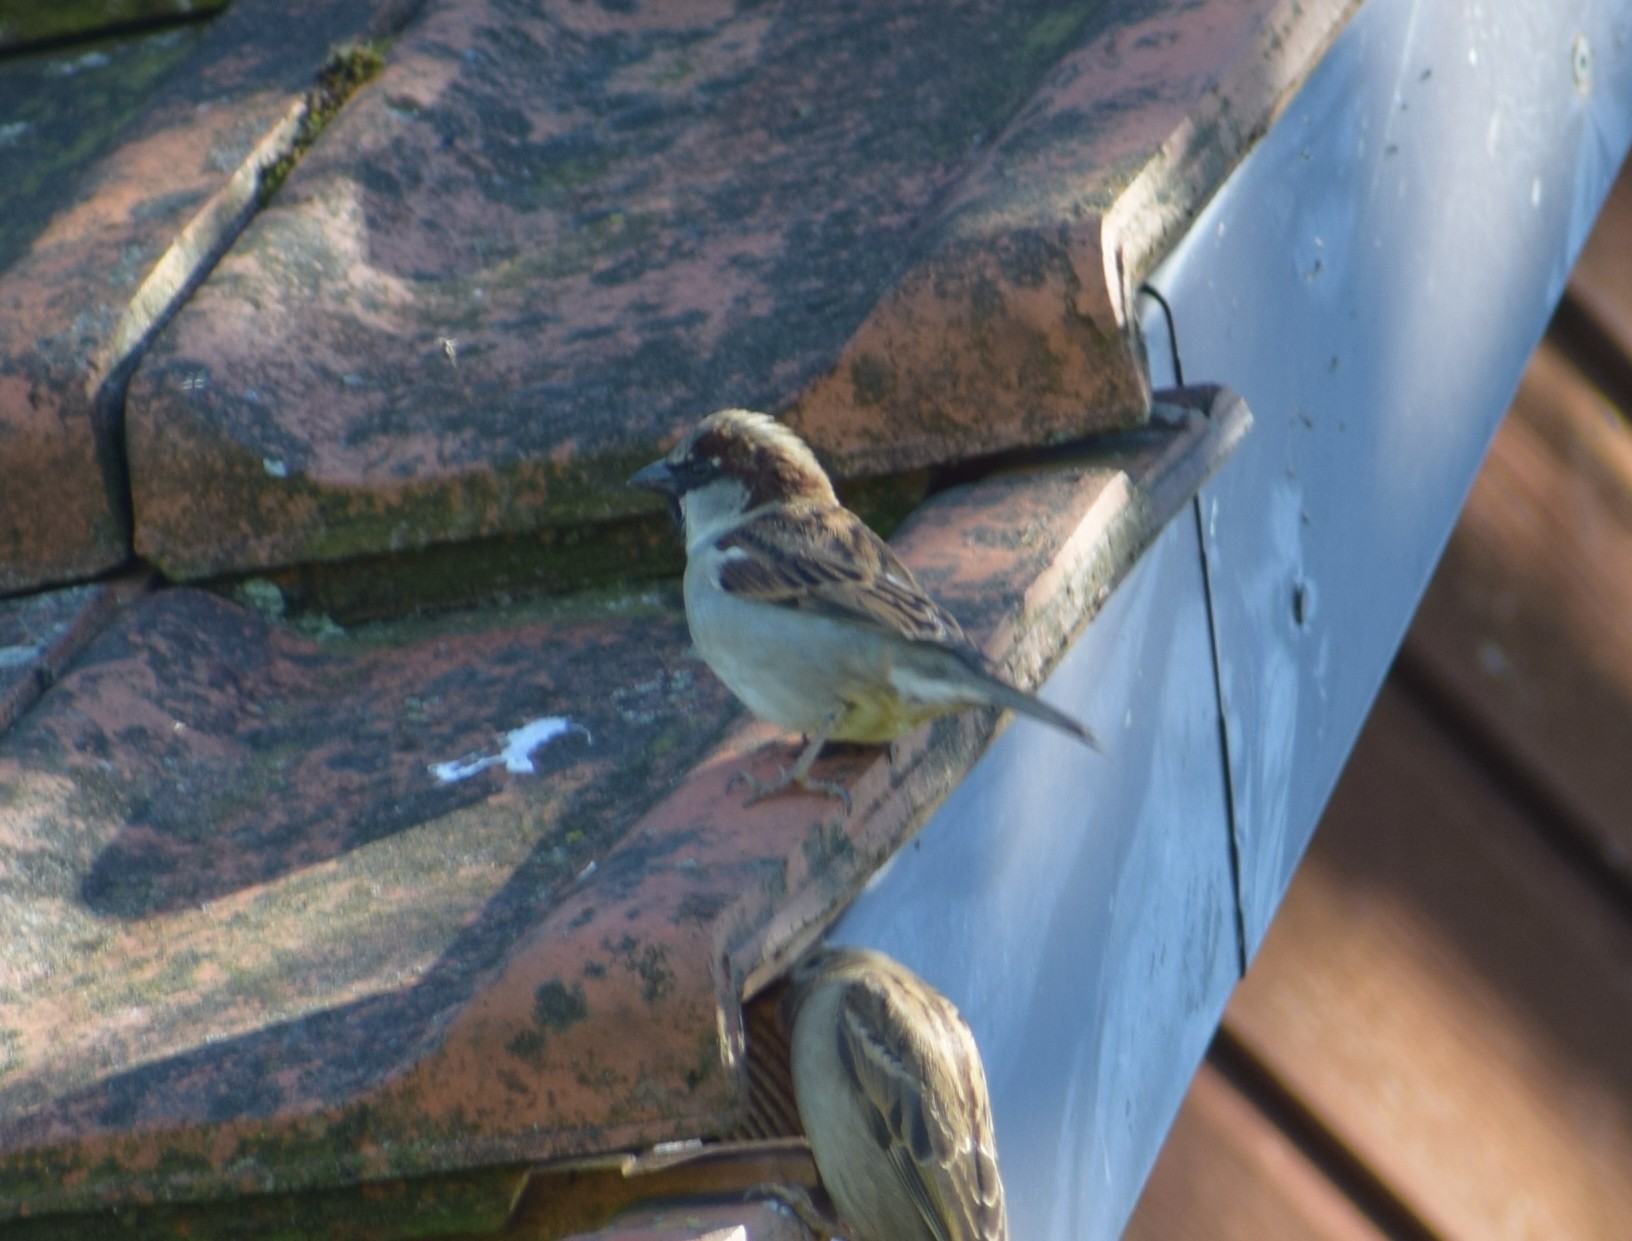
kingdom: Animalia
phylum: Chordata
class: Aves
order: Passeriformes
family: Passeridae
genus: Passer
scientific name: Passer domesticus
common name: House sparrow
